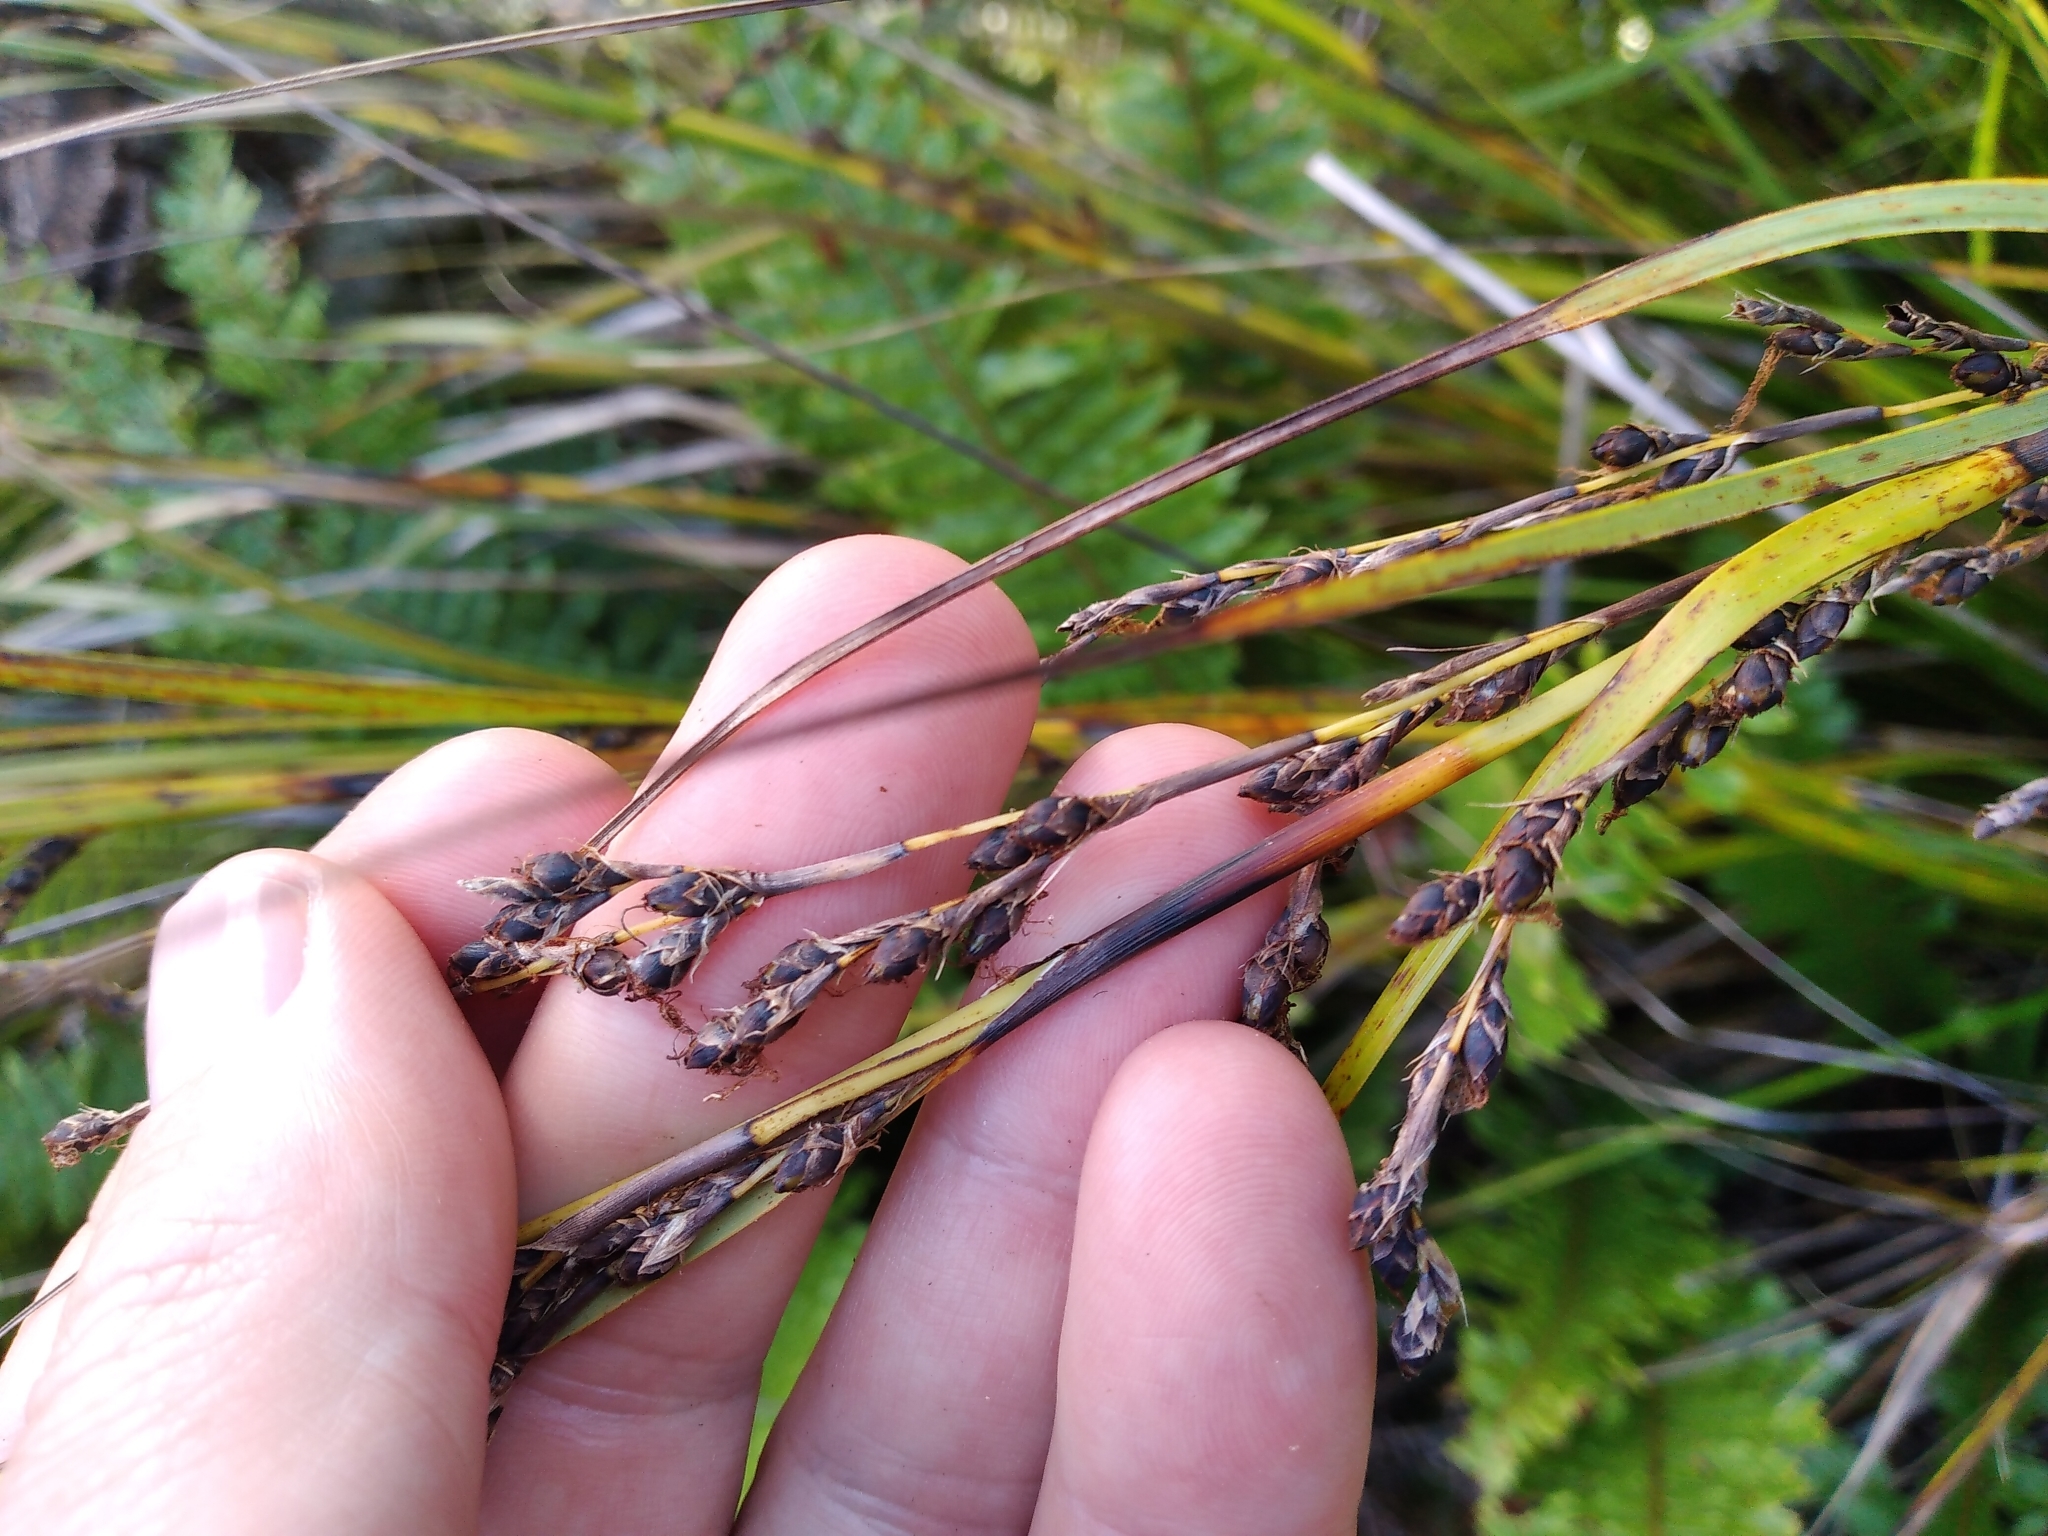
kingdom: Plantae
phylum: Tracheophyta
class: Liliopsida
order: Poales
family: Cyperaceae
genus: Gahnia
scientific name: Gahnia pauciflora
